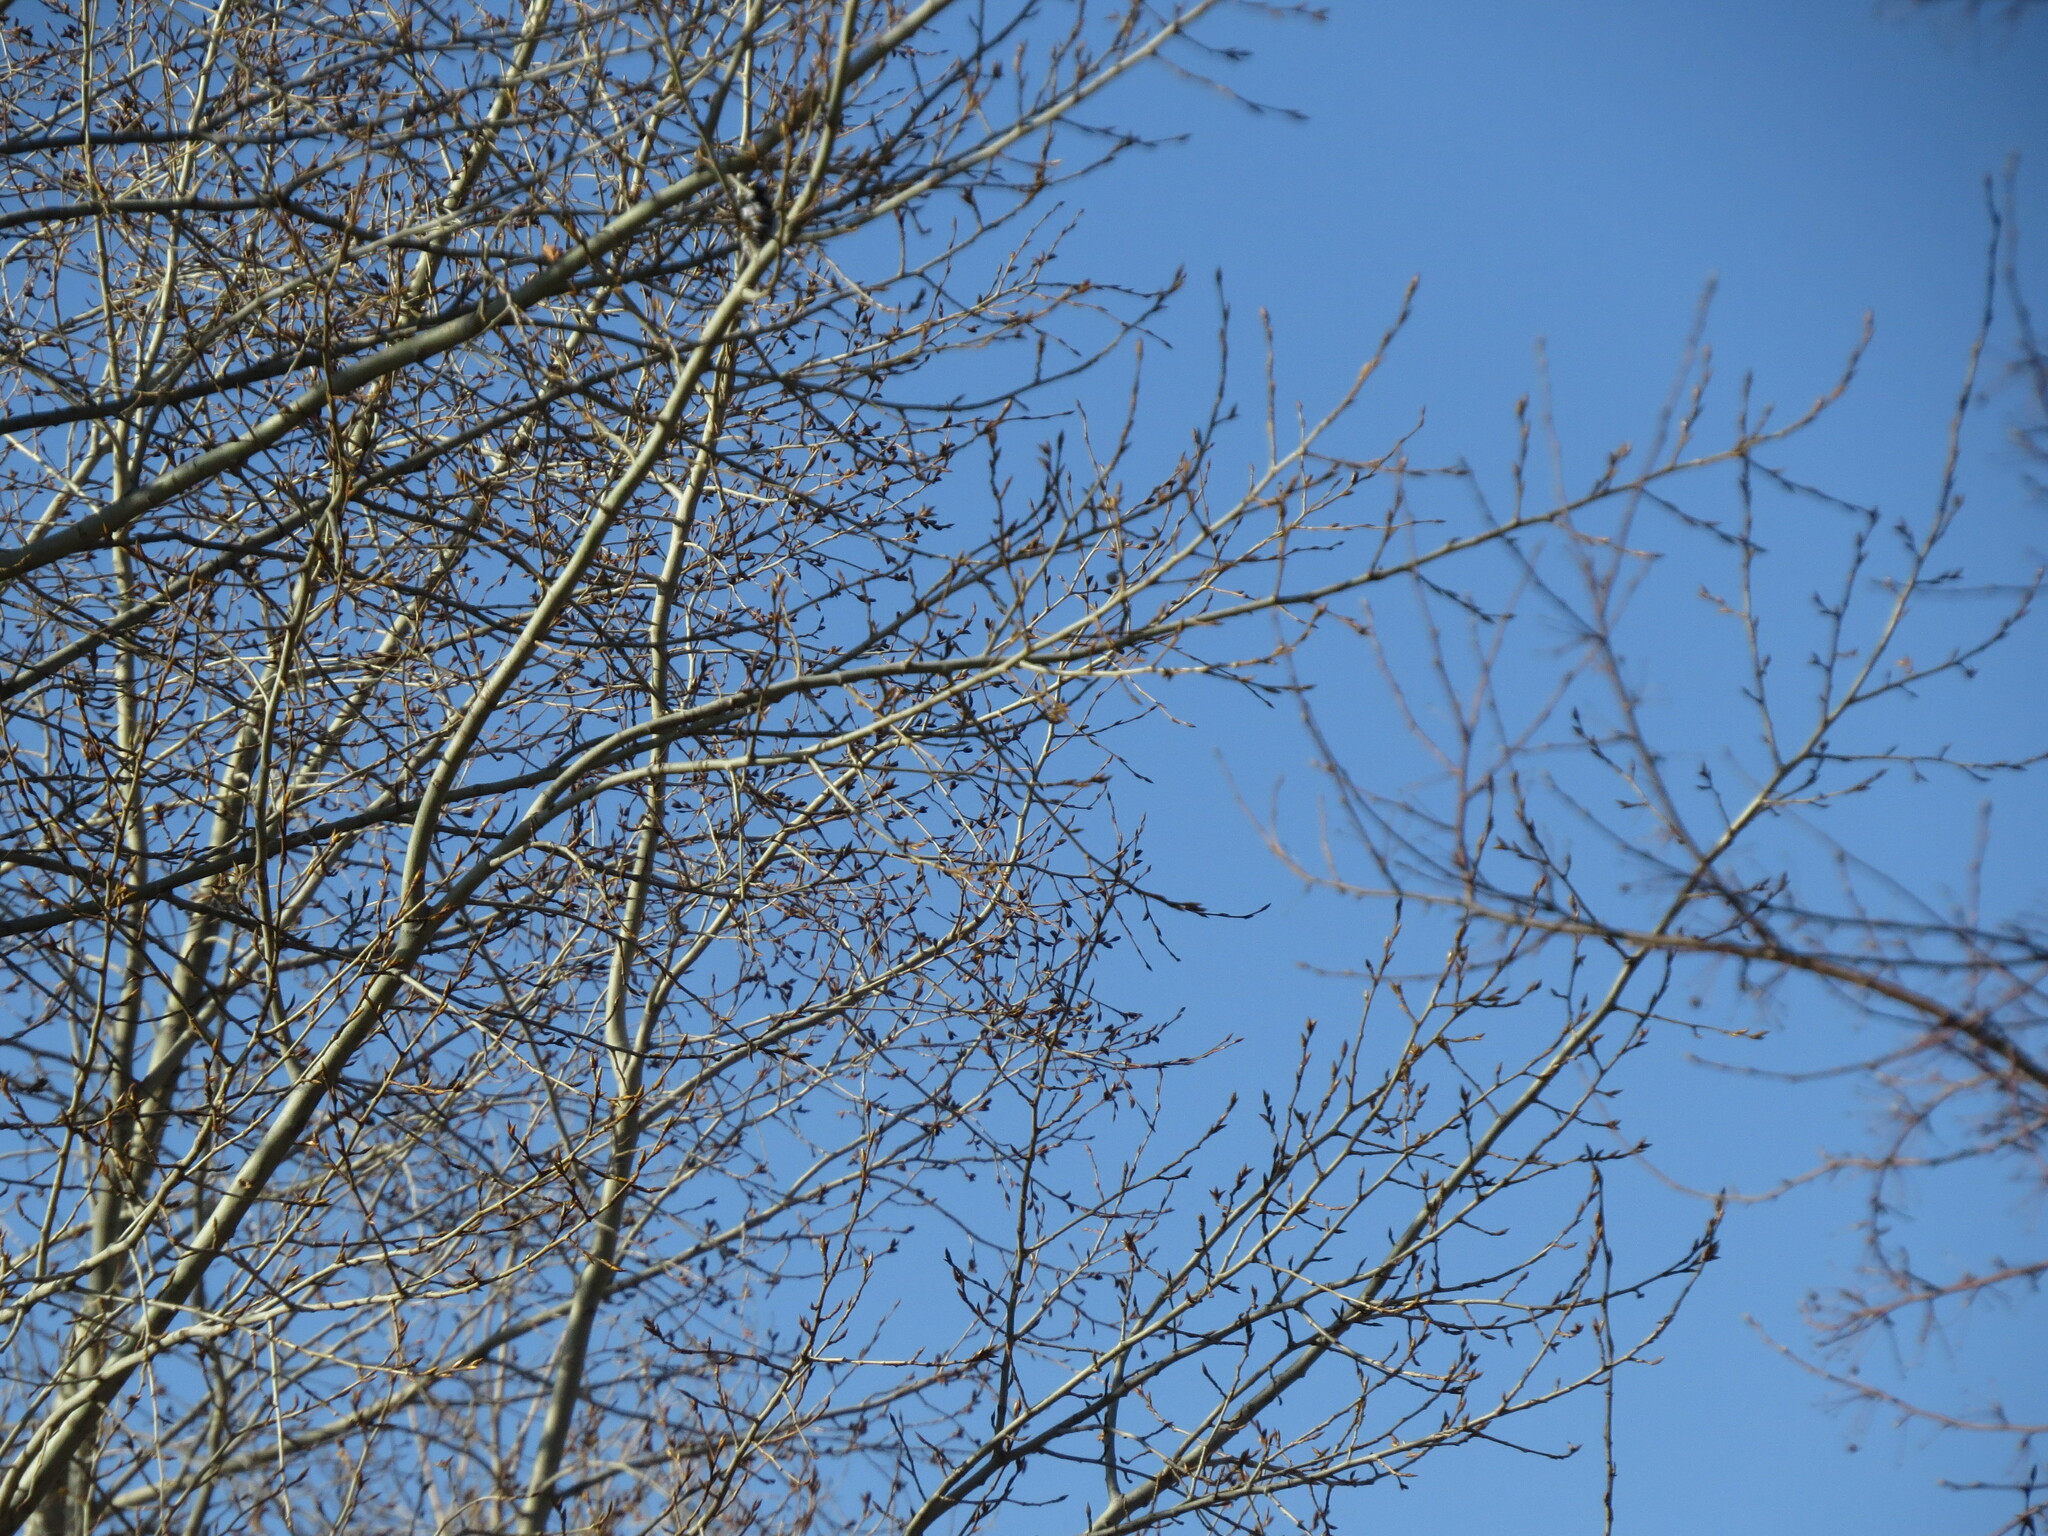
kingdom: Animalia
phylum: Chordata
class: Aves
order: Piciformes
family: Picidae
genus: Dryobates
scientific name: Dryobates minor
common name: Lesser spotted woodpecker
